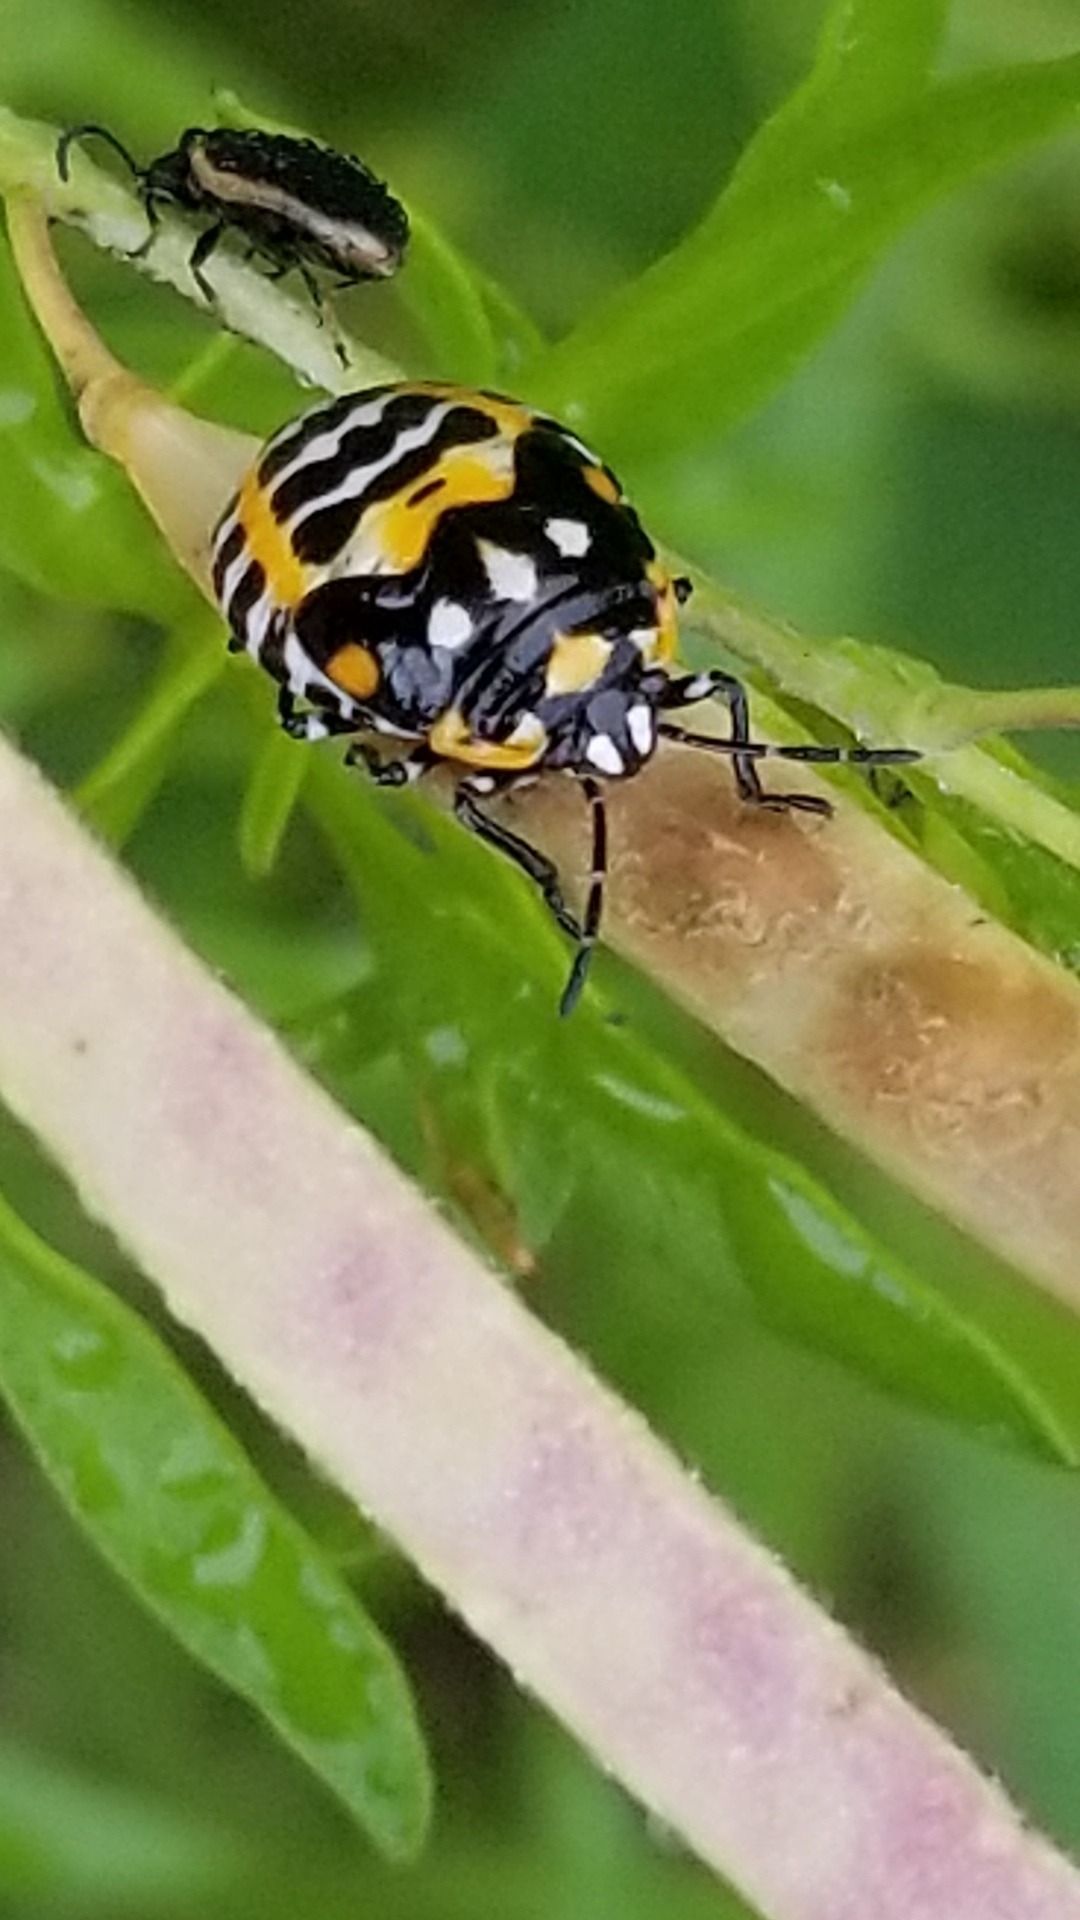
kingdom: Animalia
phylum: Arthropoda
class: Insecta
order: Hemiptera
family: Pentatomidae
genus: Murgantia
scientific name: Murgantia histrionica
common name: Harlequin bug
